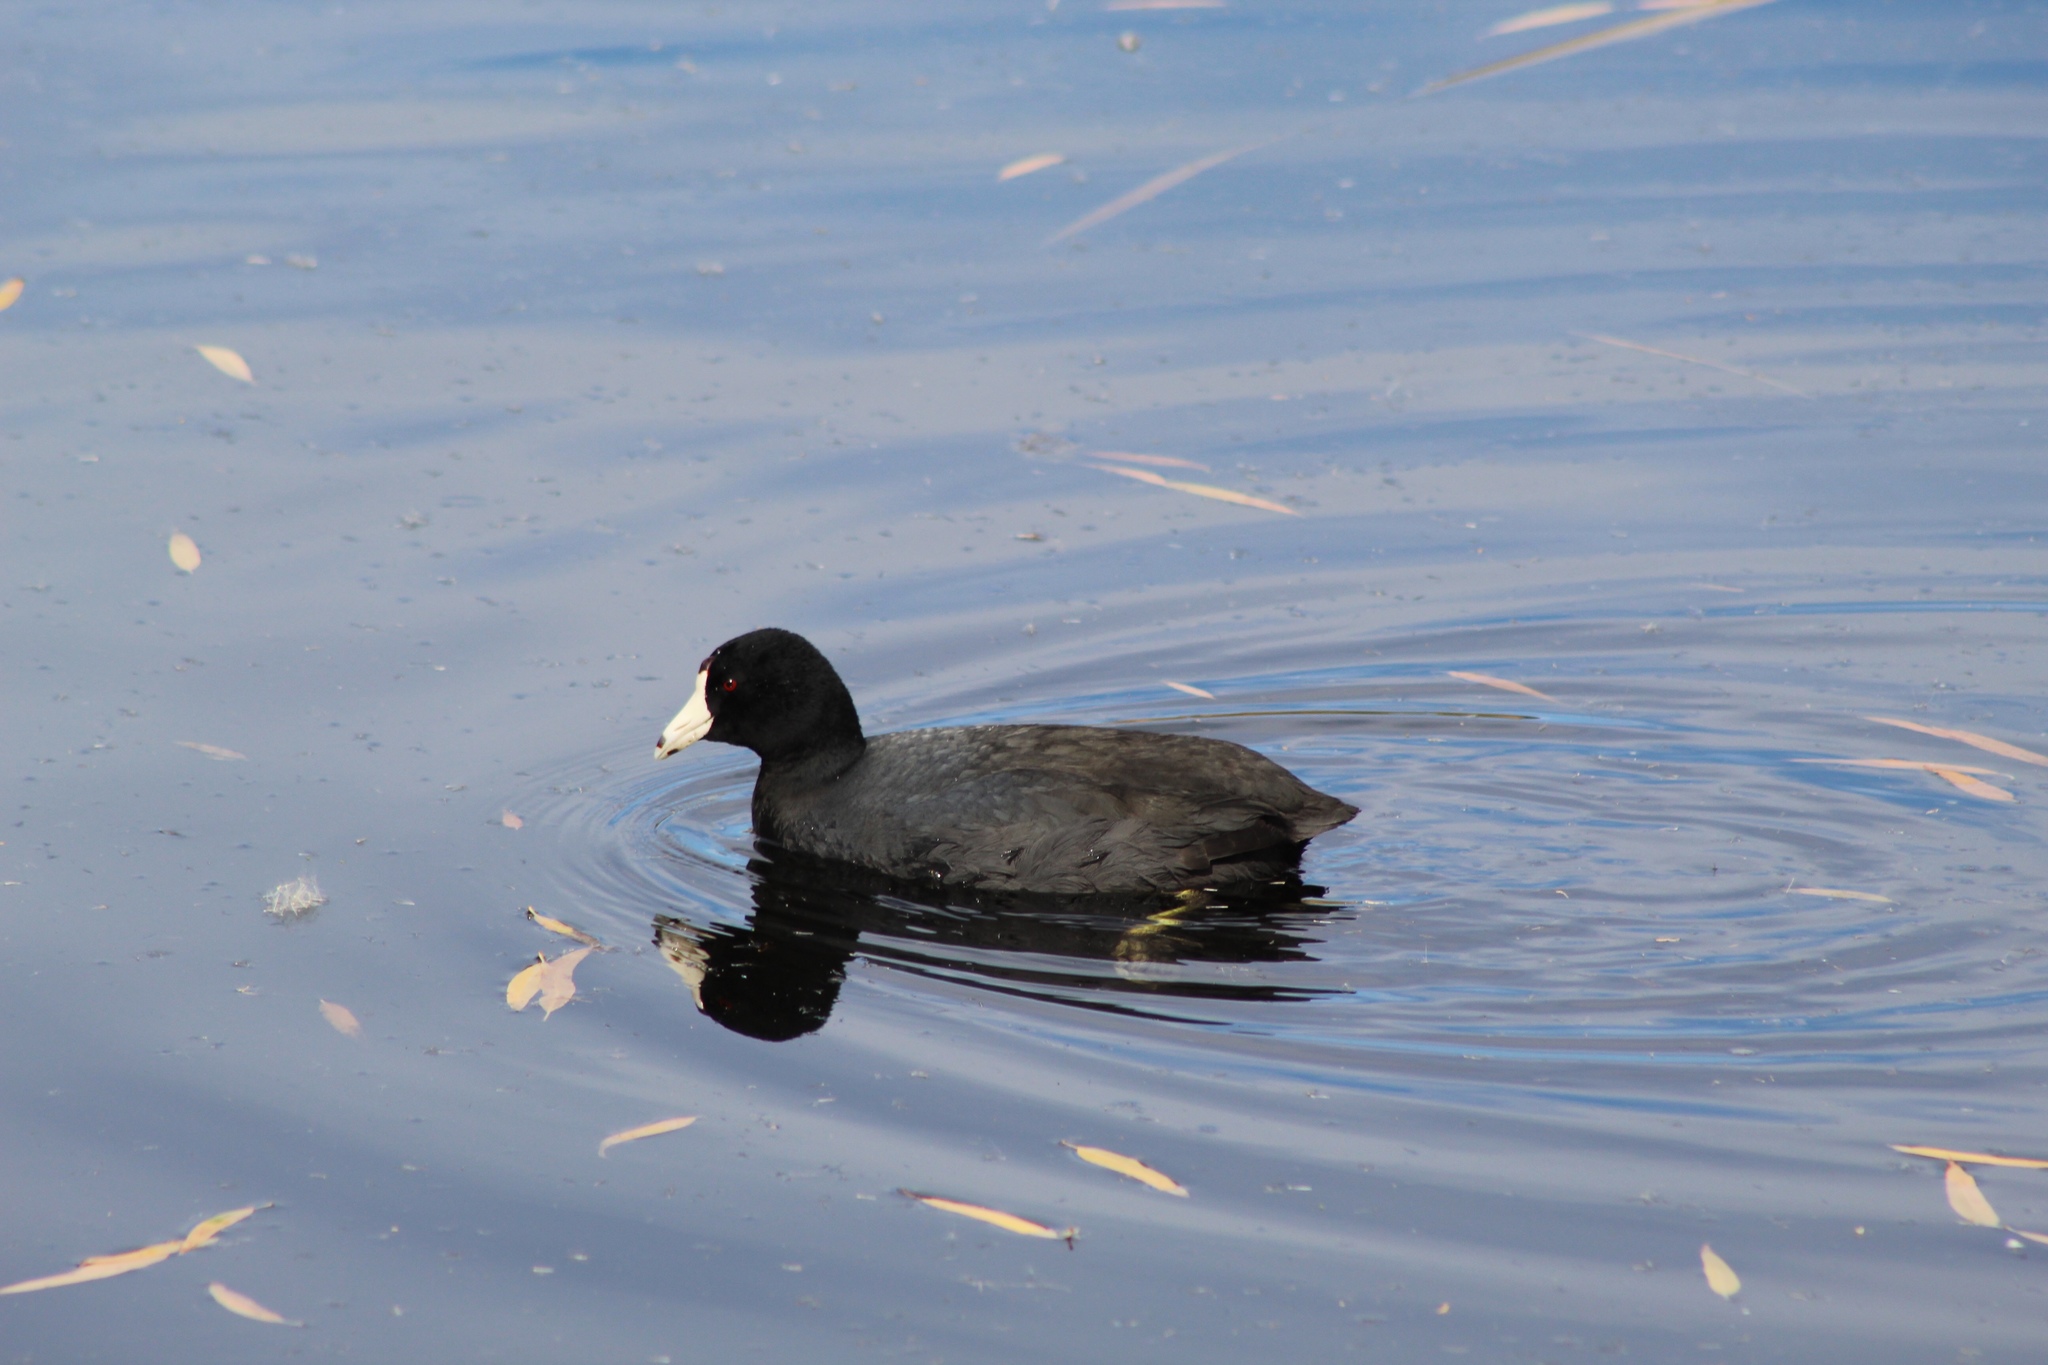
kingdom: Animalia
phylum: Chordata
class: Aves
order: Gruiformes
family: Rallidae
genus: Fulica
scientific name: Fulica americana
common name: American coot
